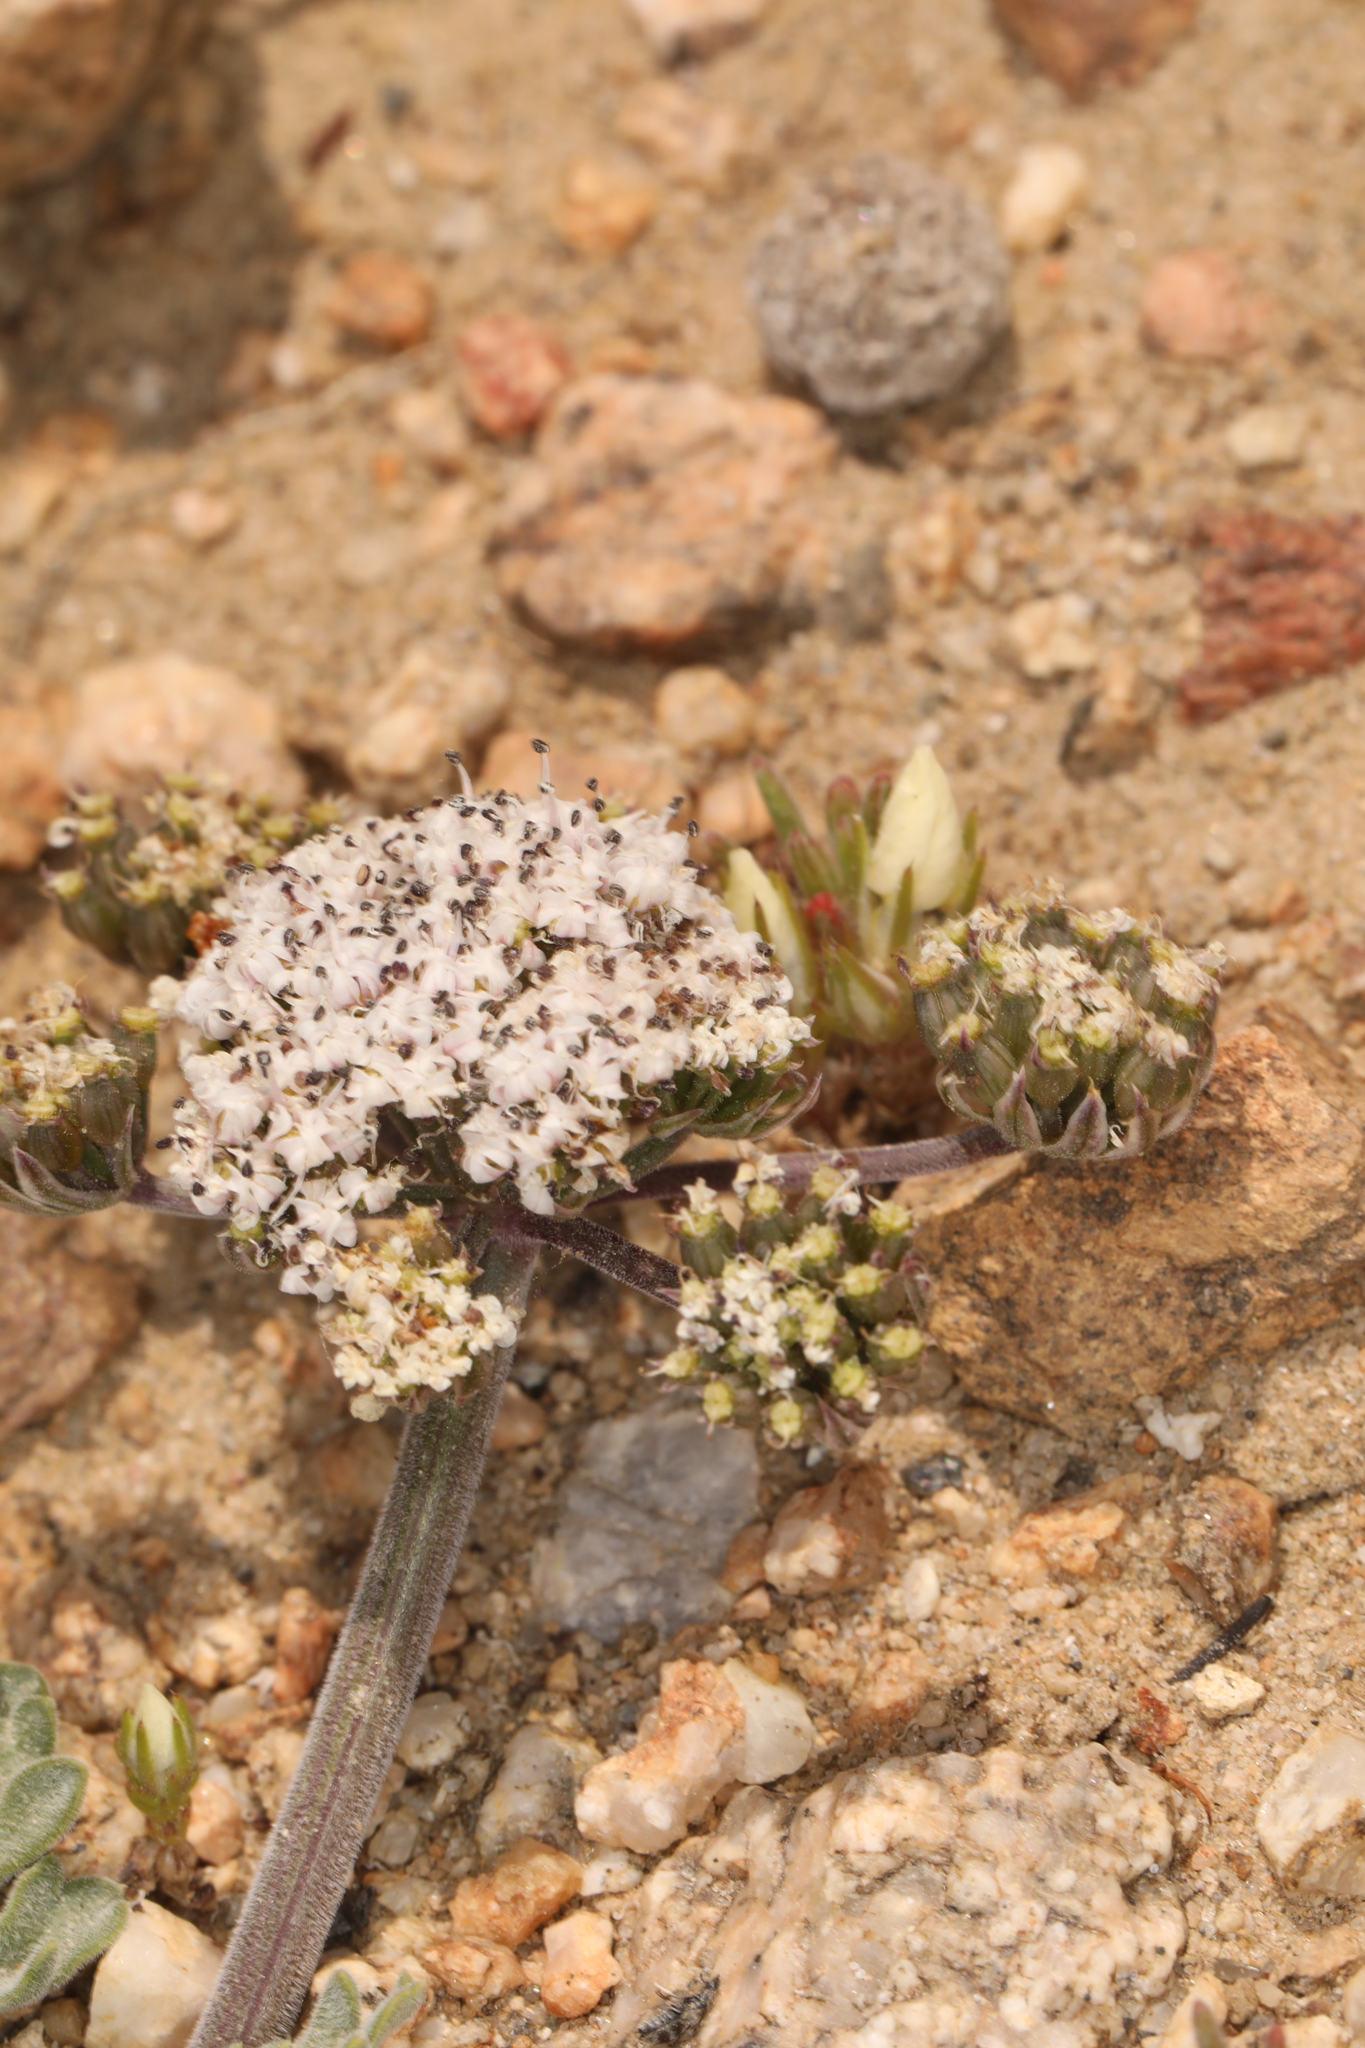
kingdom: Plantae
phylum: Tracheophyta
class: Magnoliopsida
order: Apiales
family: Apiaceae
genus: Lomatium
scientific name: Lomatium nevadense
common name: Nevada lomatium
